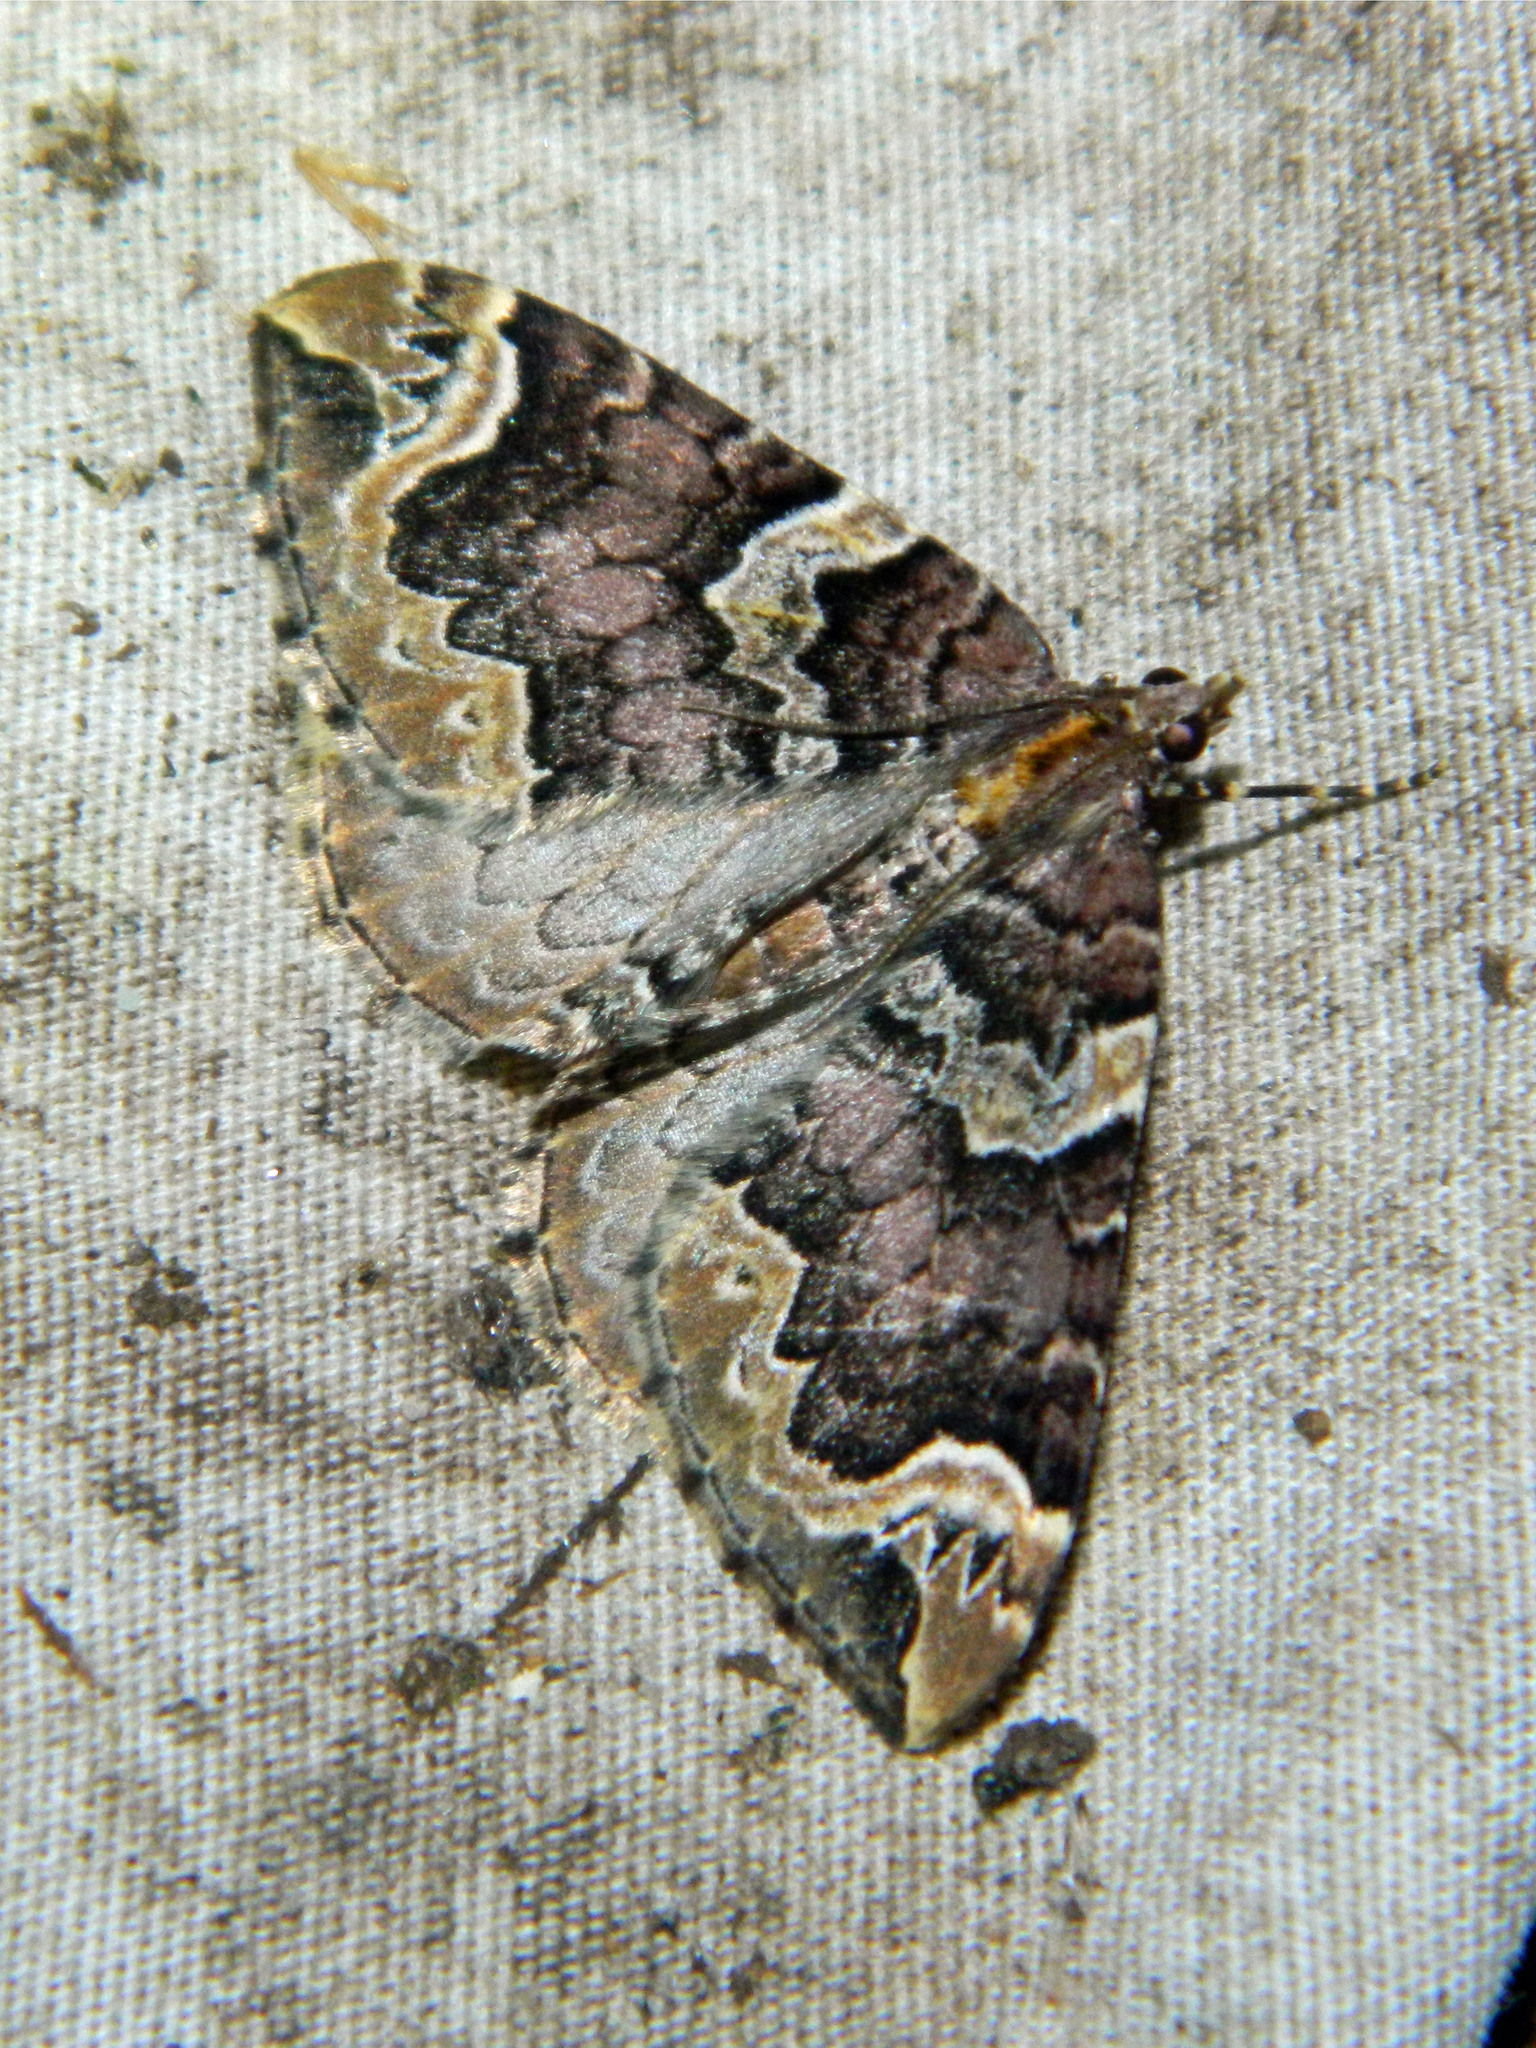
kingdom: Animalia
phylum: Arthropoda
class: Insecta
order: Lepidoptera
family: Geometridae
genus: Eulithis
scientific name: Eulithis serrataria
